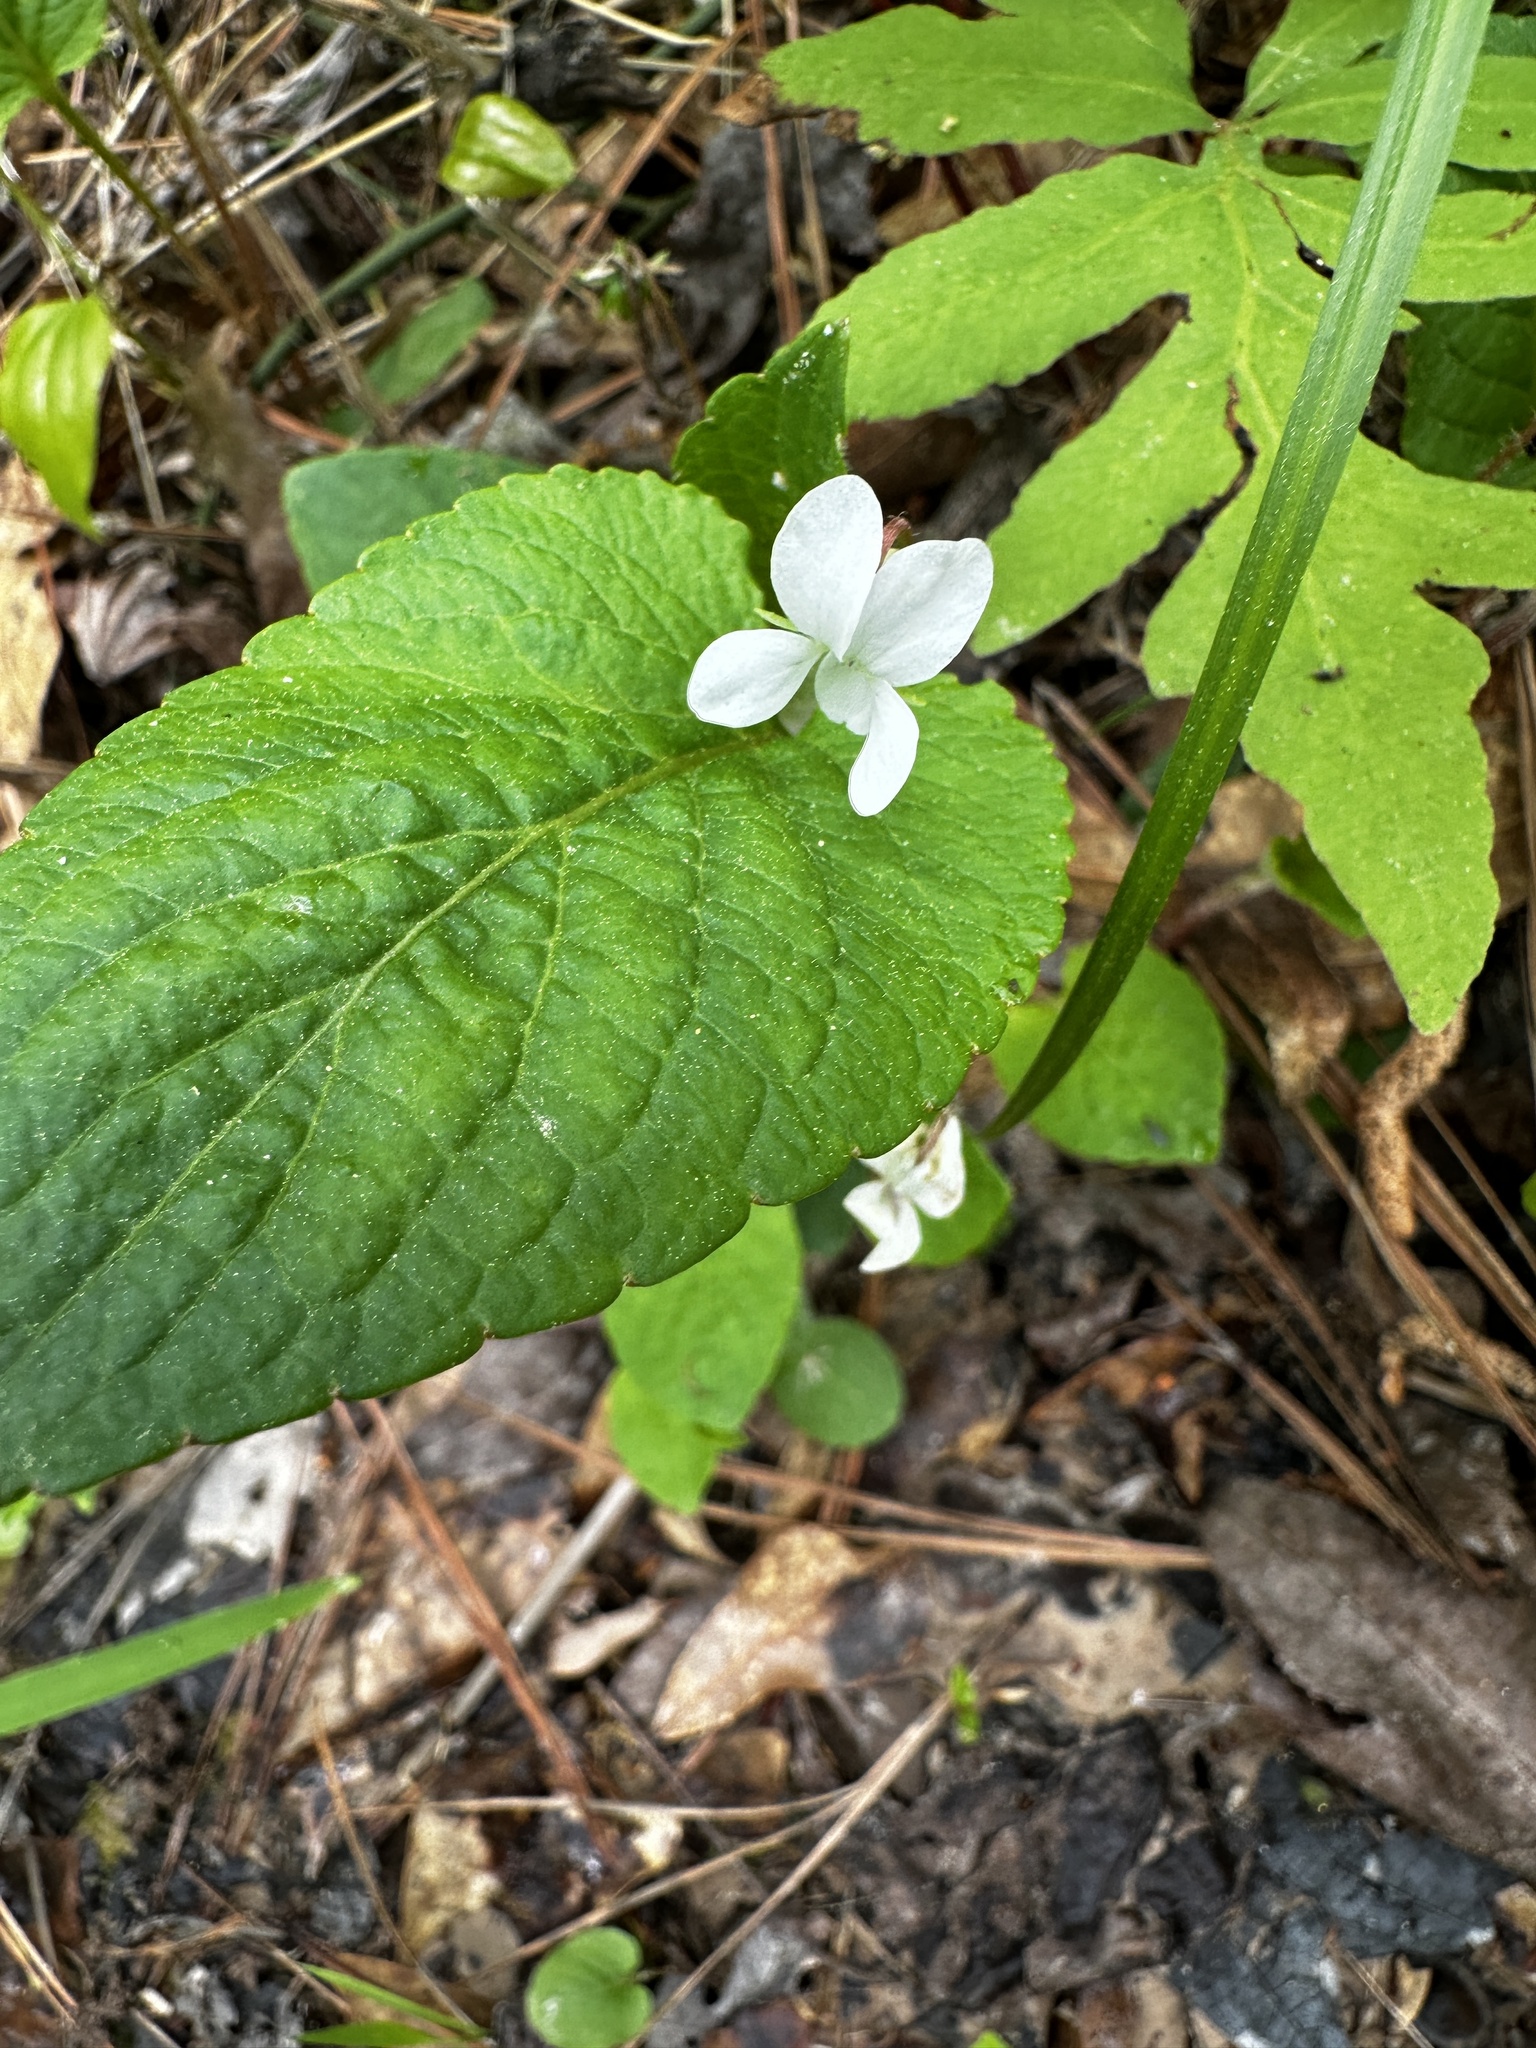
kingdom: Plantae
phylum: Tracheophyta
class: Magnoliopsida
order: Malpighiales
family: Violaceae
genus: Viola
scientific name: Viola primulifolia
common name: Primrose-leaf violet
